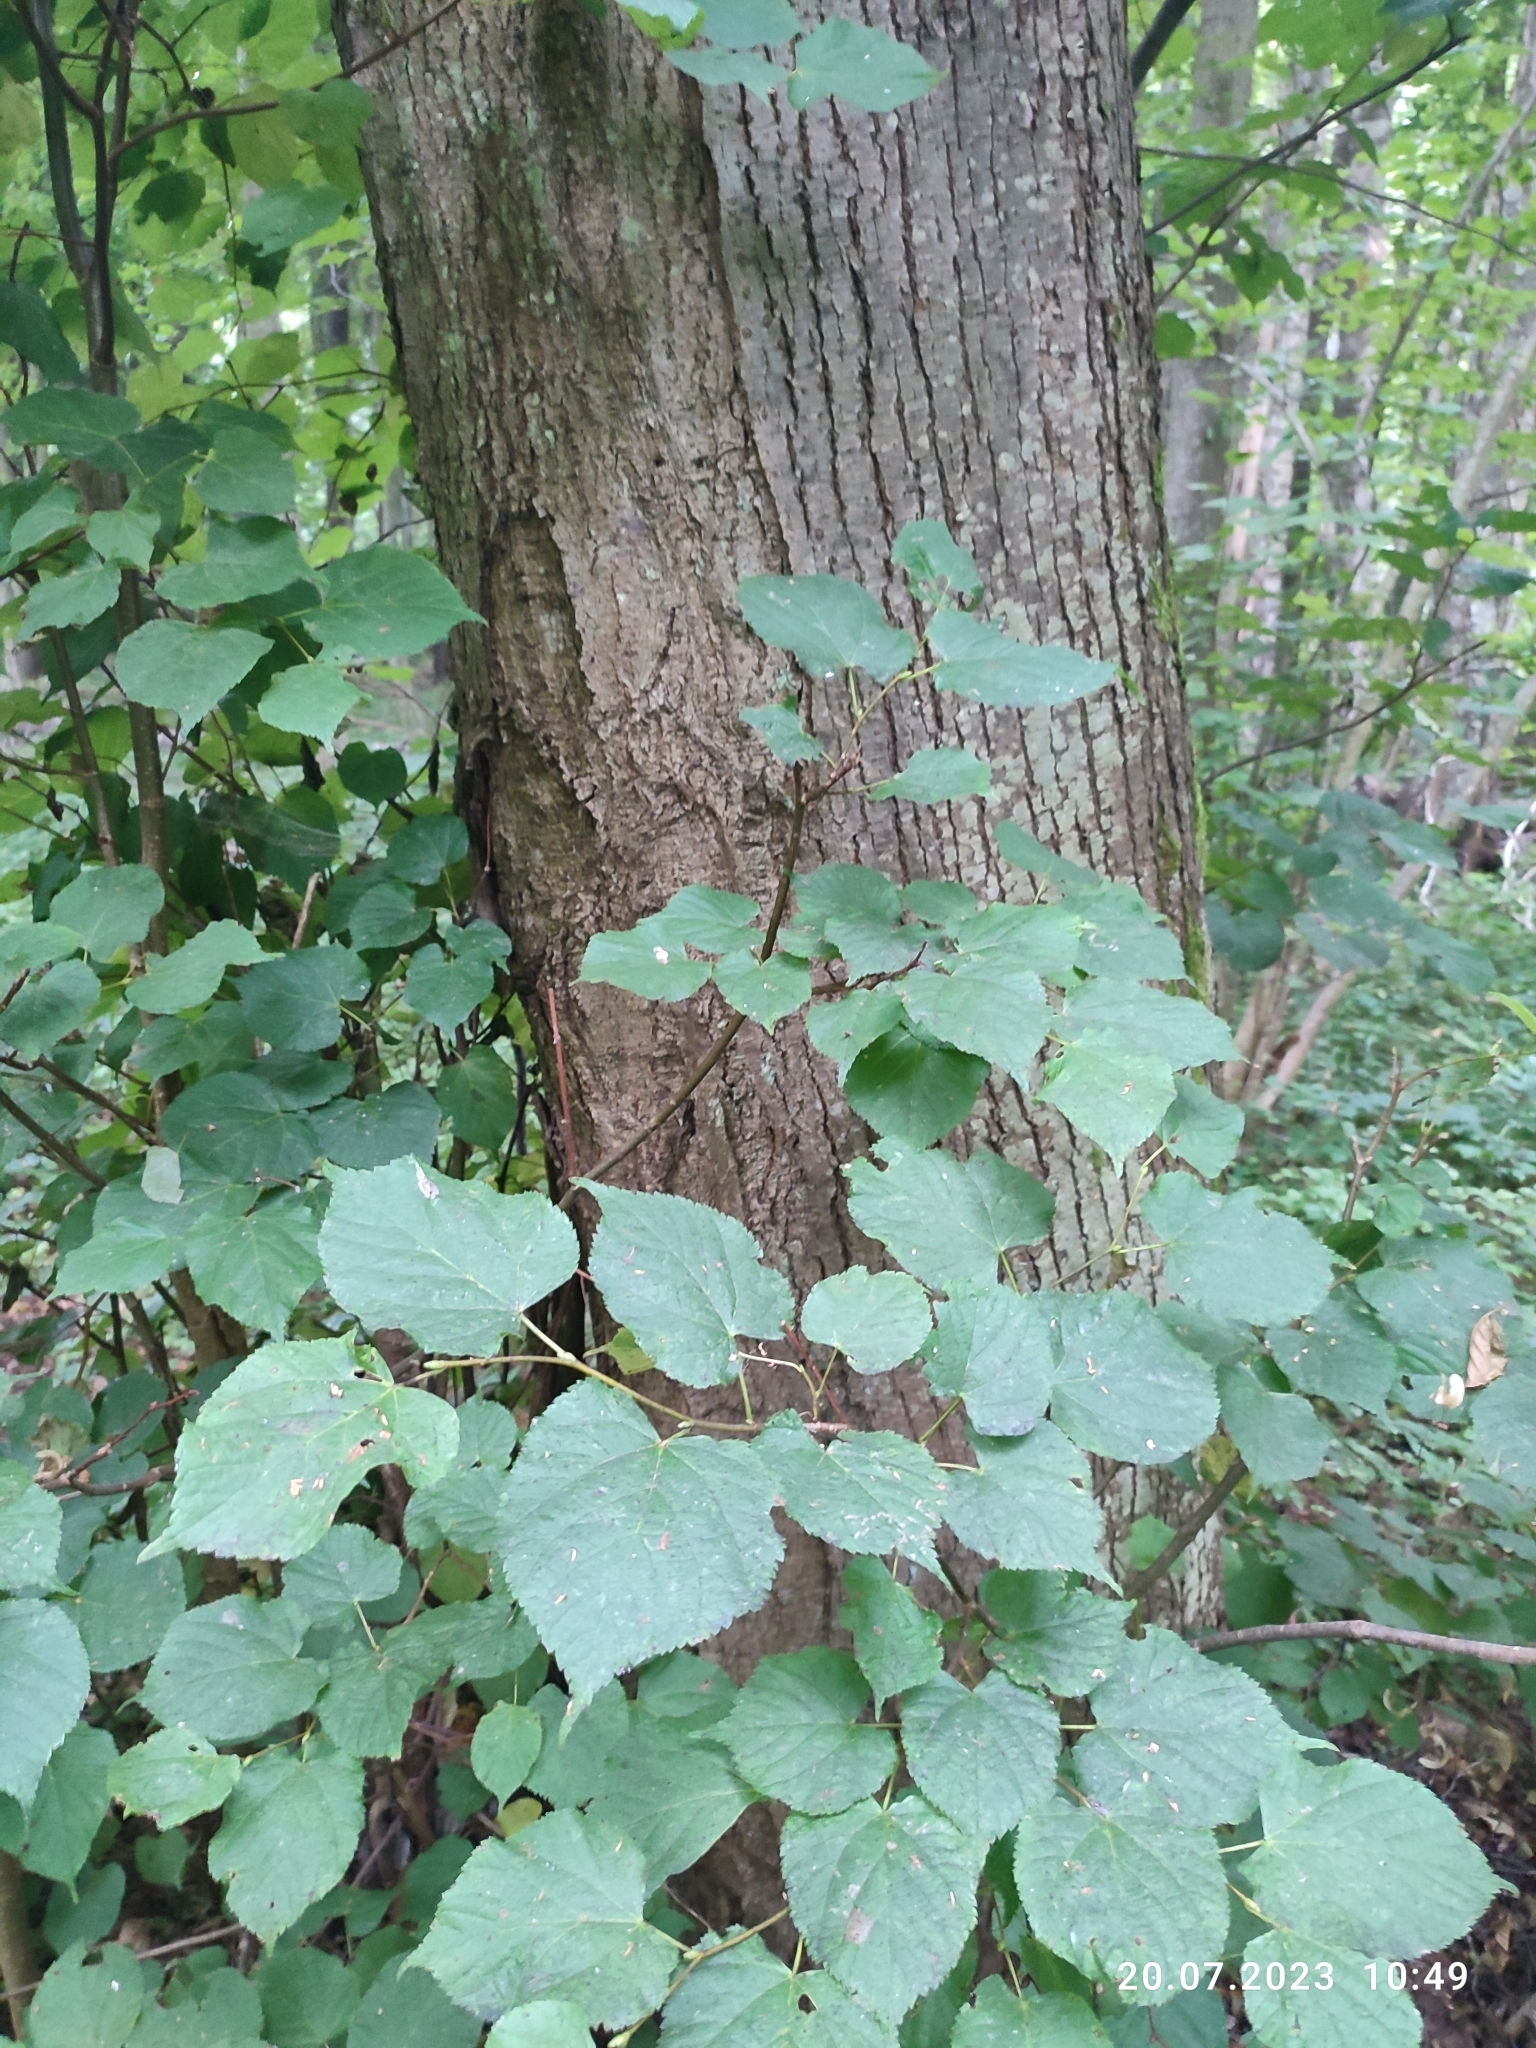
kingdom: Plantae
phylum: Tracheophyta
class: Magnoliopsida
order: Malvales
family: Malvaceae
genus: Tilia
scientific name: Tilia cordata
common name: Small-leaved lime
